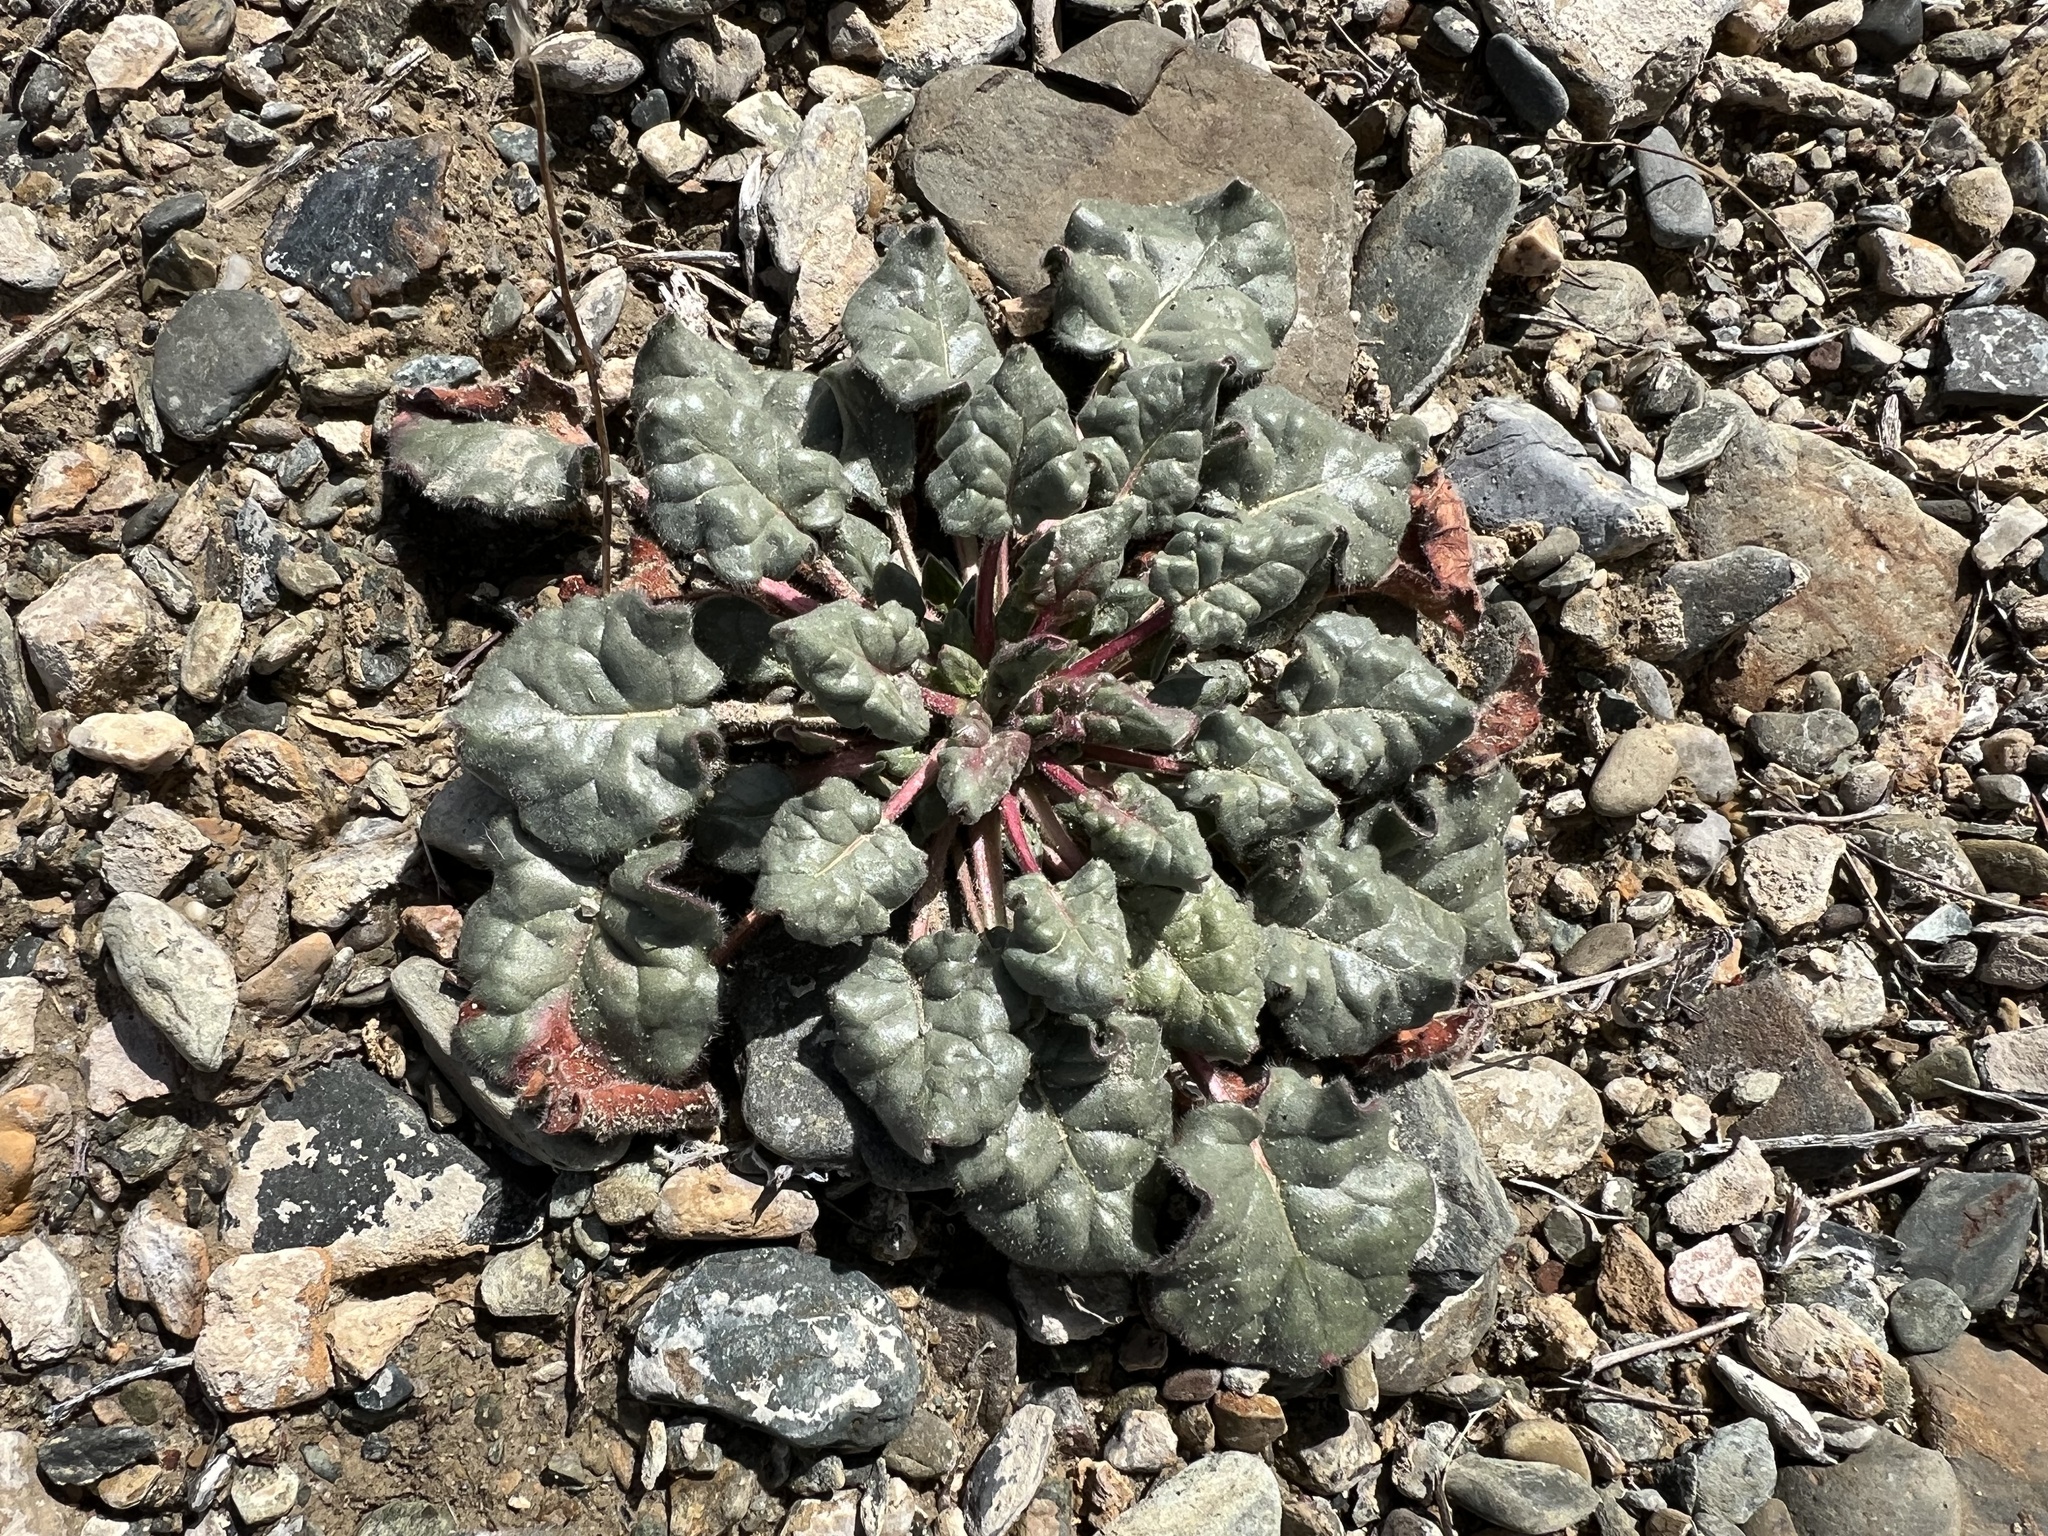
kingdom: Plantae
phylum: Tracheophyta
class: Magnoliopsida
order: Caryophyllales
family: Polygonaceae
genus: Eriogonum
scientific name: Eriogonum inflatum
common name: Desert trumpet
